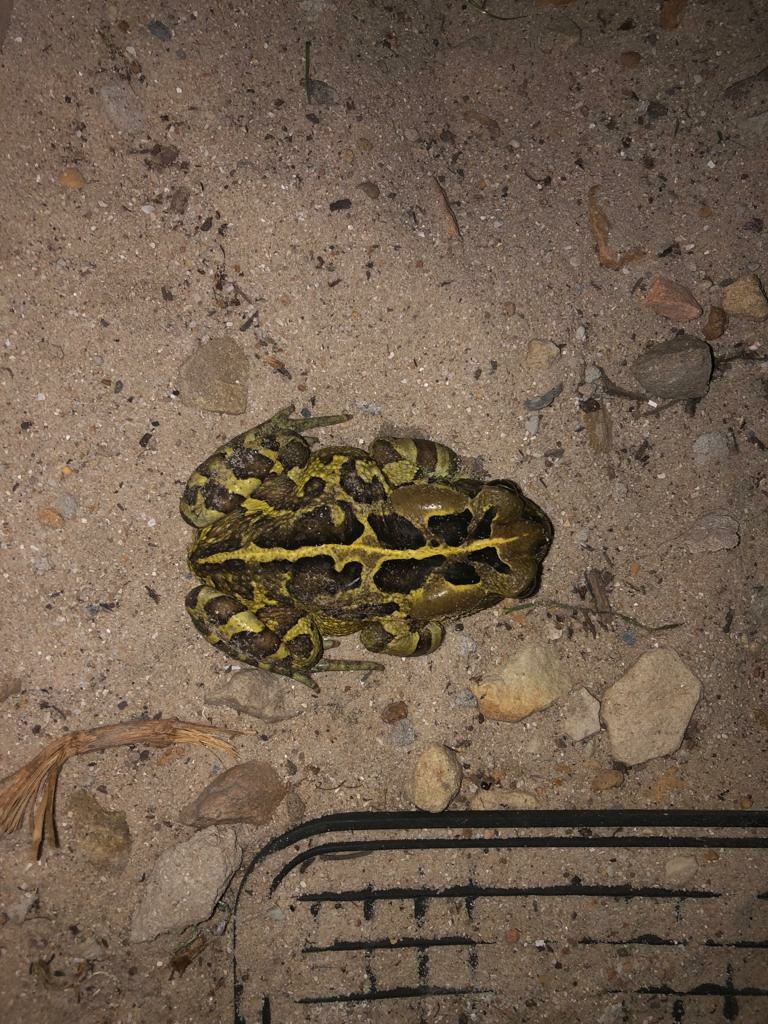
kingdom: Animalia
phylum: Chordata
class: Amphibia
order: Anura
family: Bufonidae
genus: Sclerophrys
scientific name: Sclerophrys pantherina
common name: Panther toad
